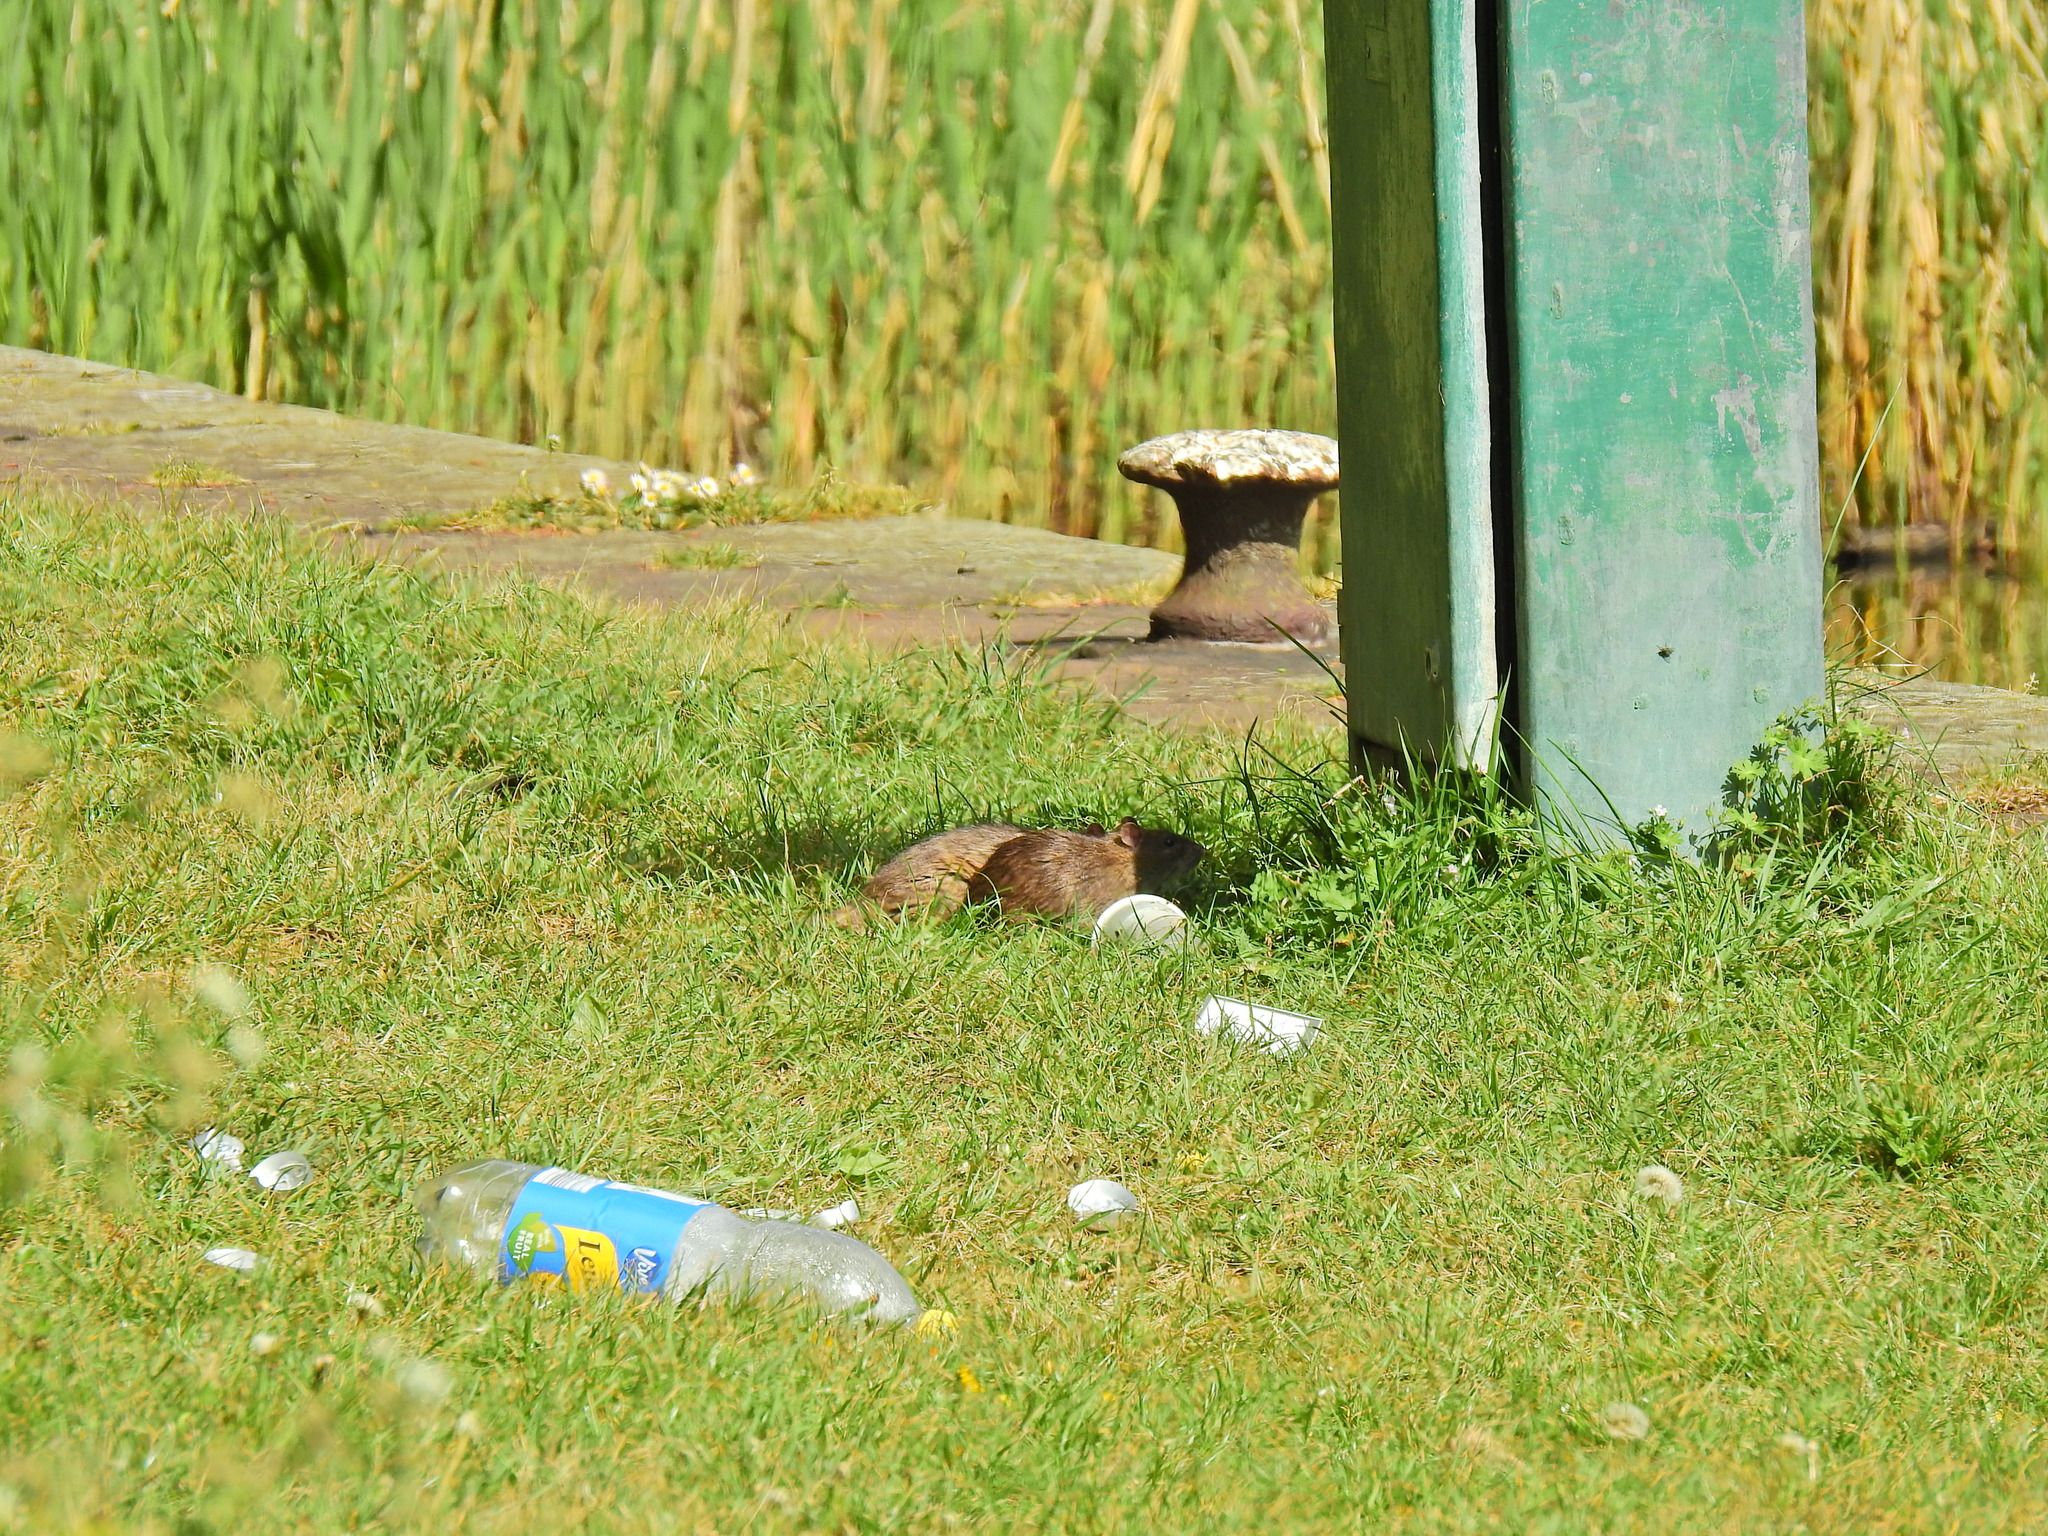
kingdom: Animalia
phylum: Chordata
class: Mammalia
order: Rodentia
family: Muridae
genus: Rattus
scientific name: Rattus norvegicus
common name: Brown rat
